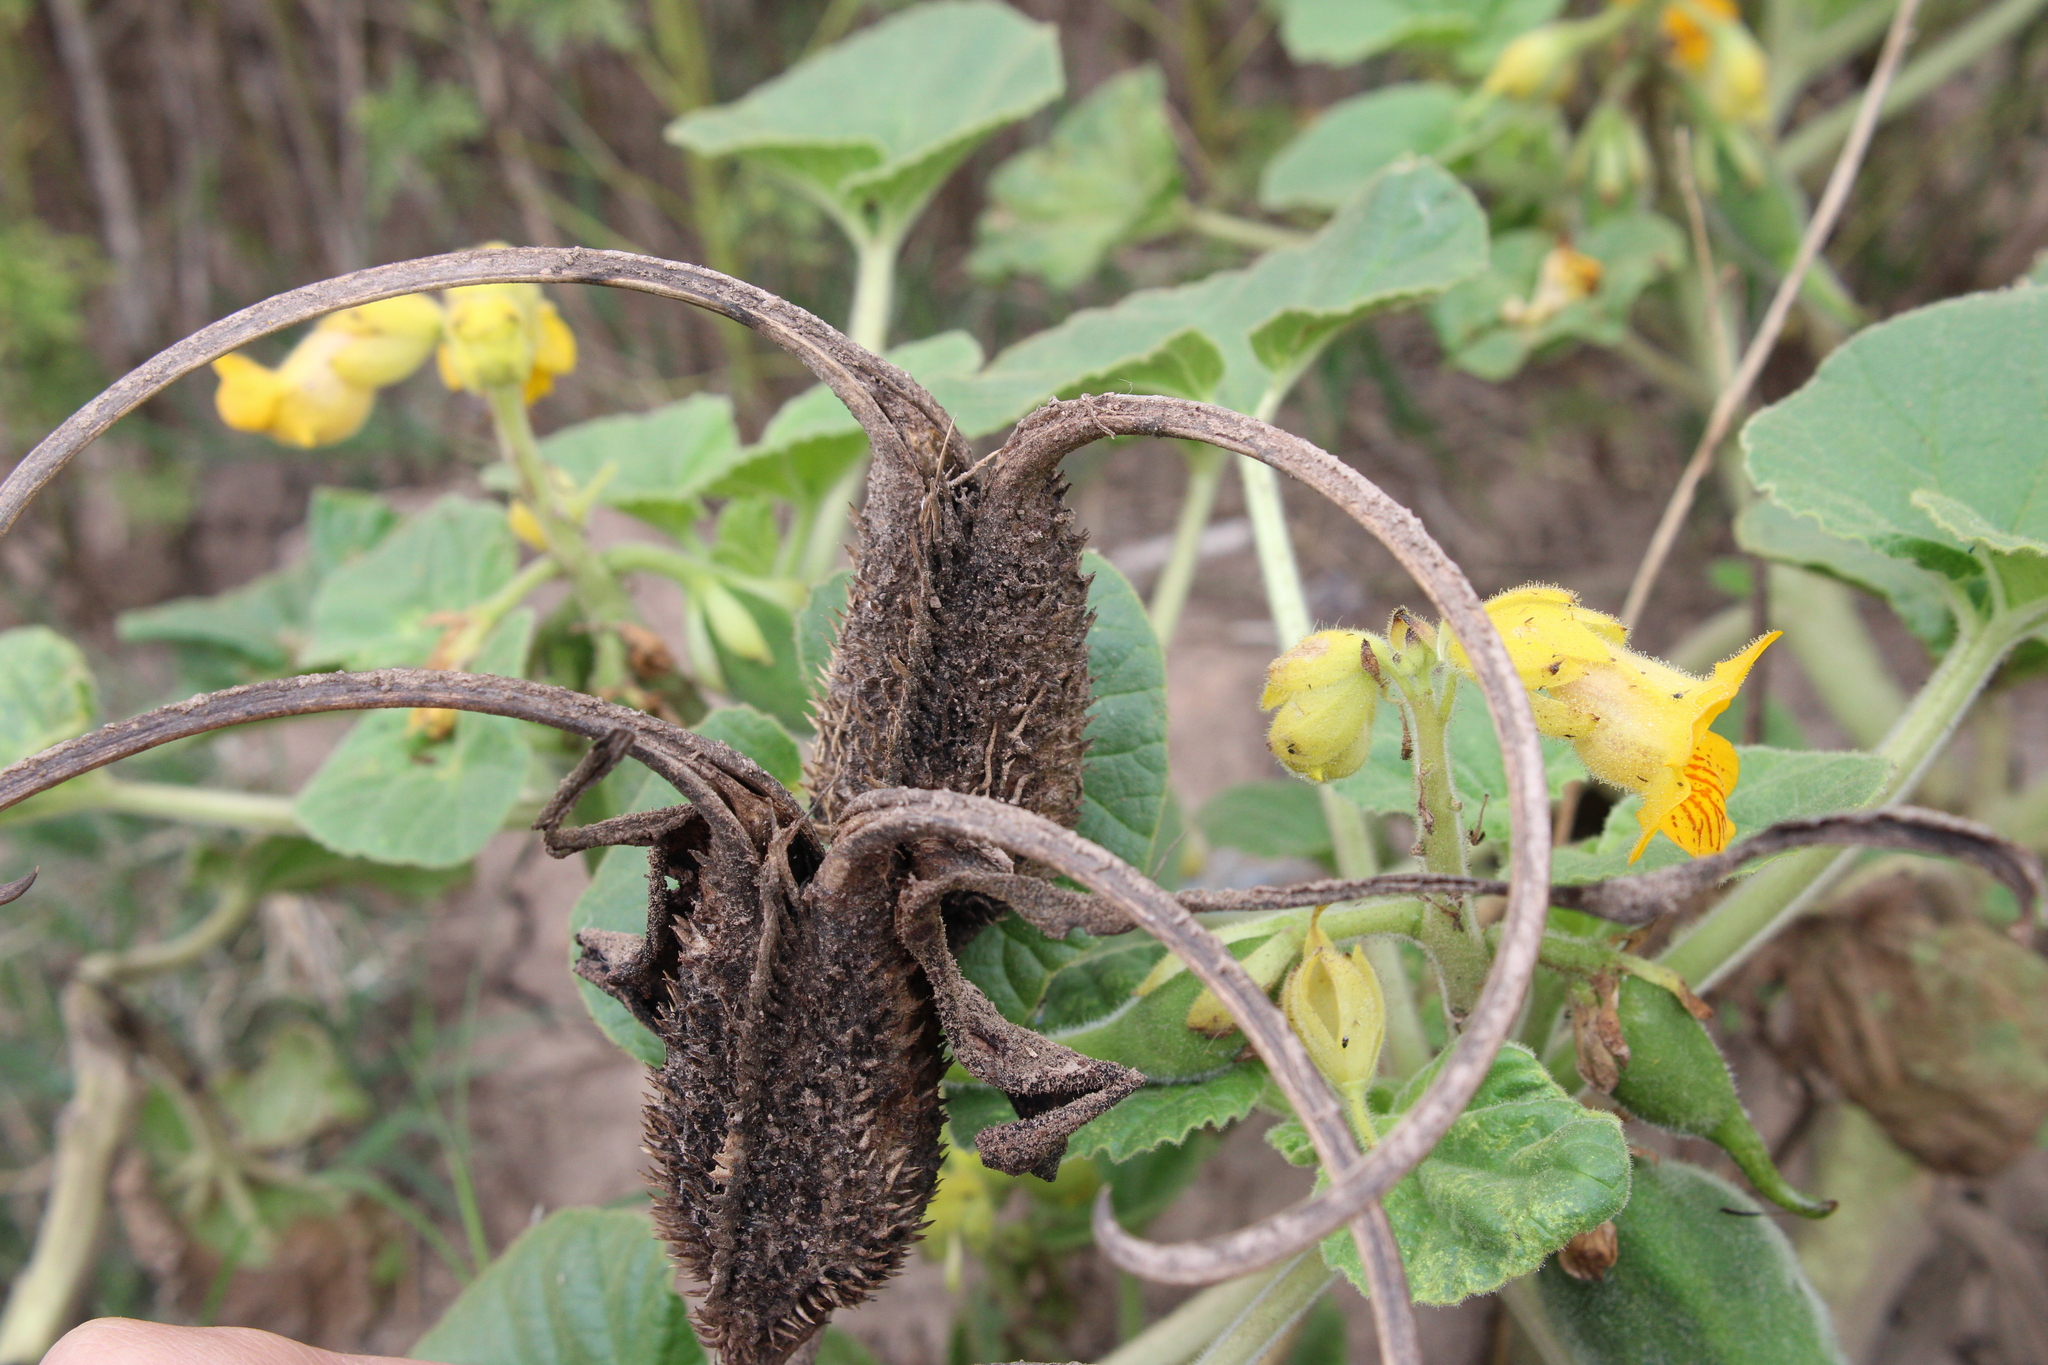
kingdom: Plantae
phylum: Tracheophyta
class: Magnoliopsida
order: Lamiales
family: Martyniaceae
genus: Ibicella
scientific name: Ibicella lutea
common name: Yellow unicorn-plant
